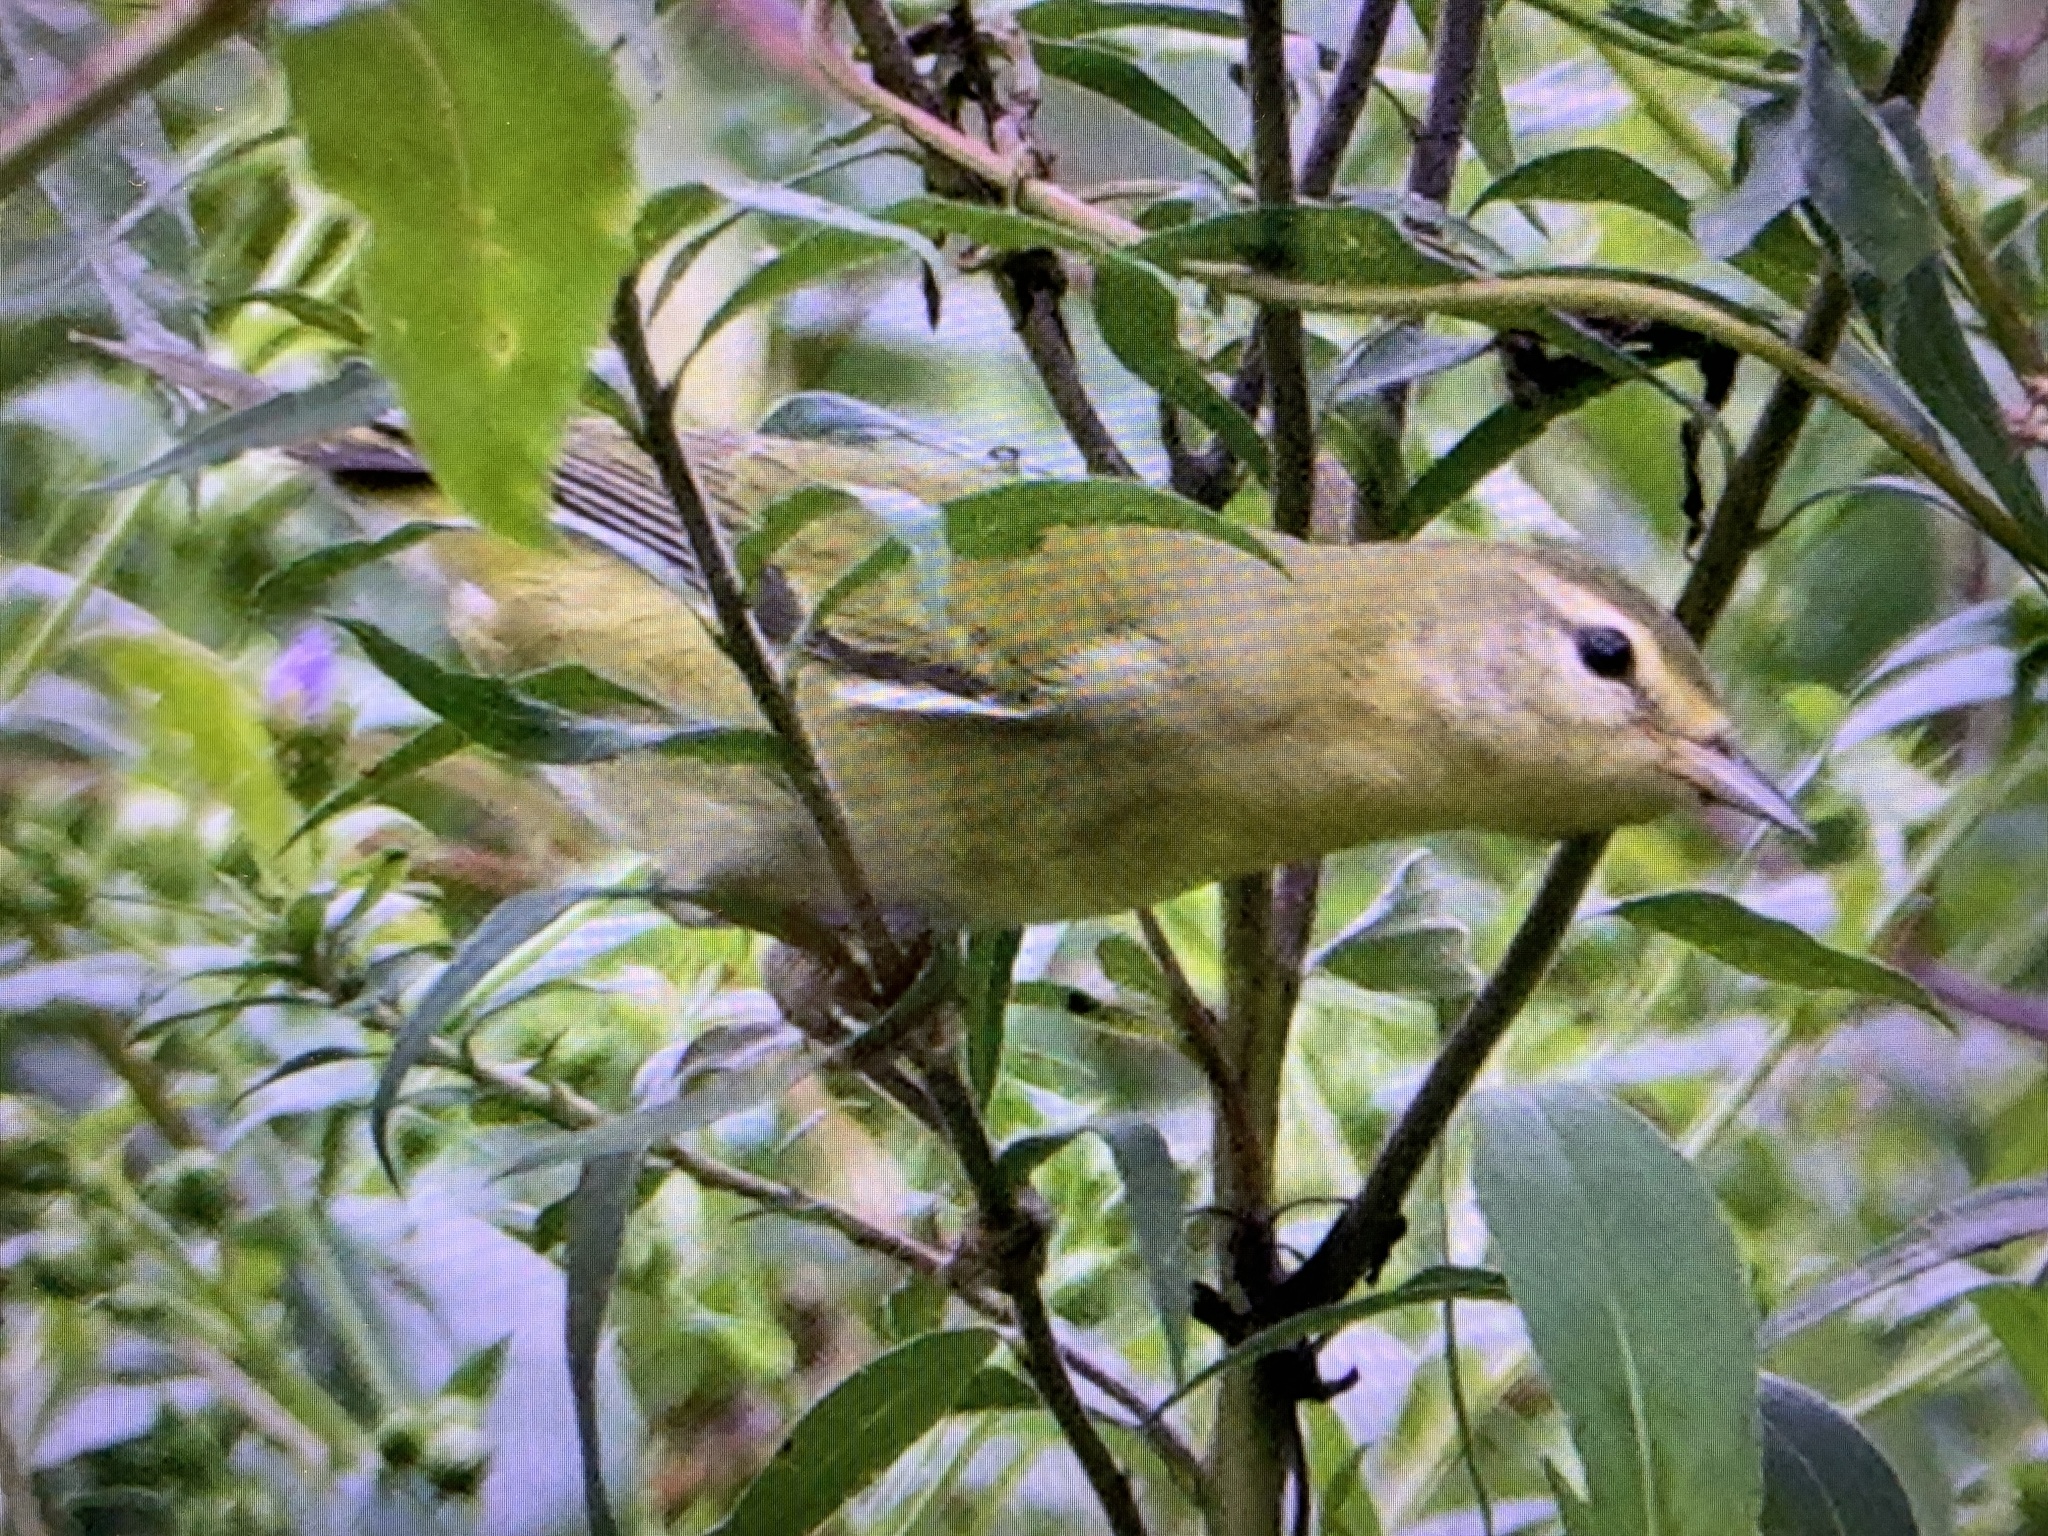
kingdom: Animalia
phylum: Chordata
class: Aves
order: Passeriformes
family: Parulidae
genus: Leiothlypis
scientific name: Leiothlypis peregrina
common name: Tennessee warbler
